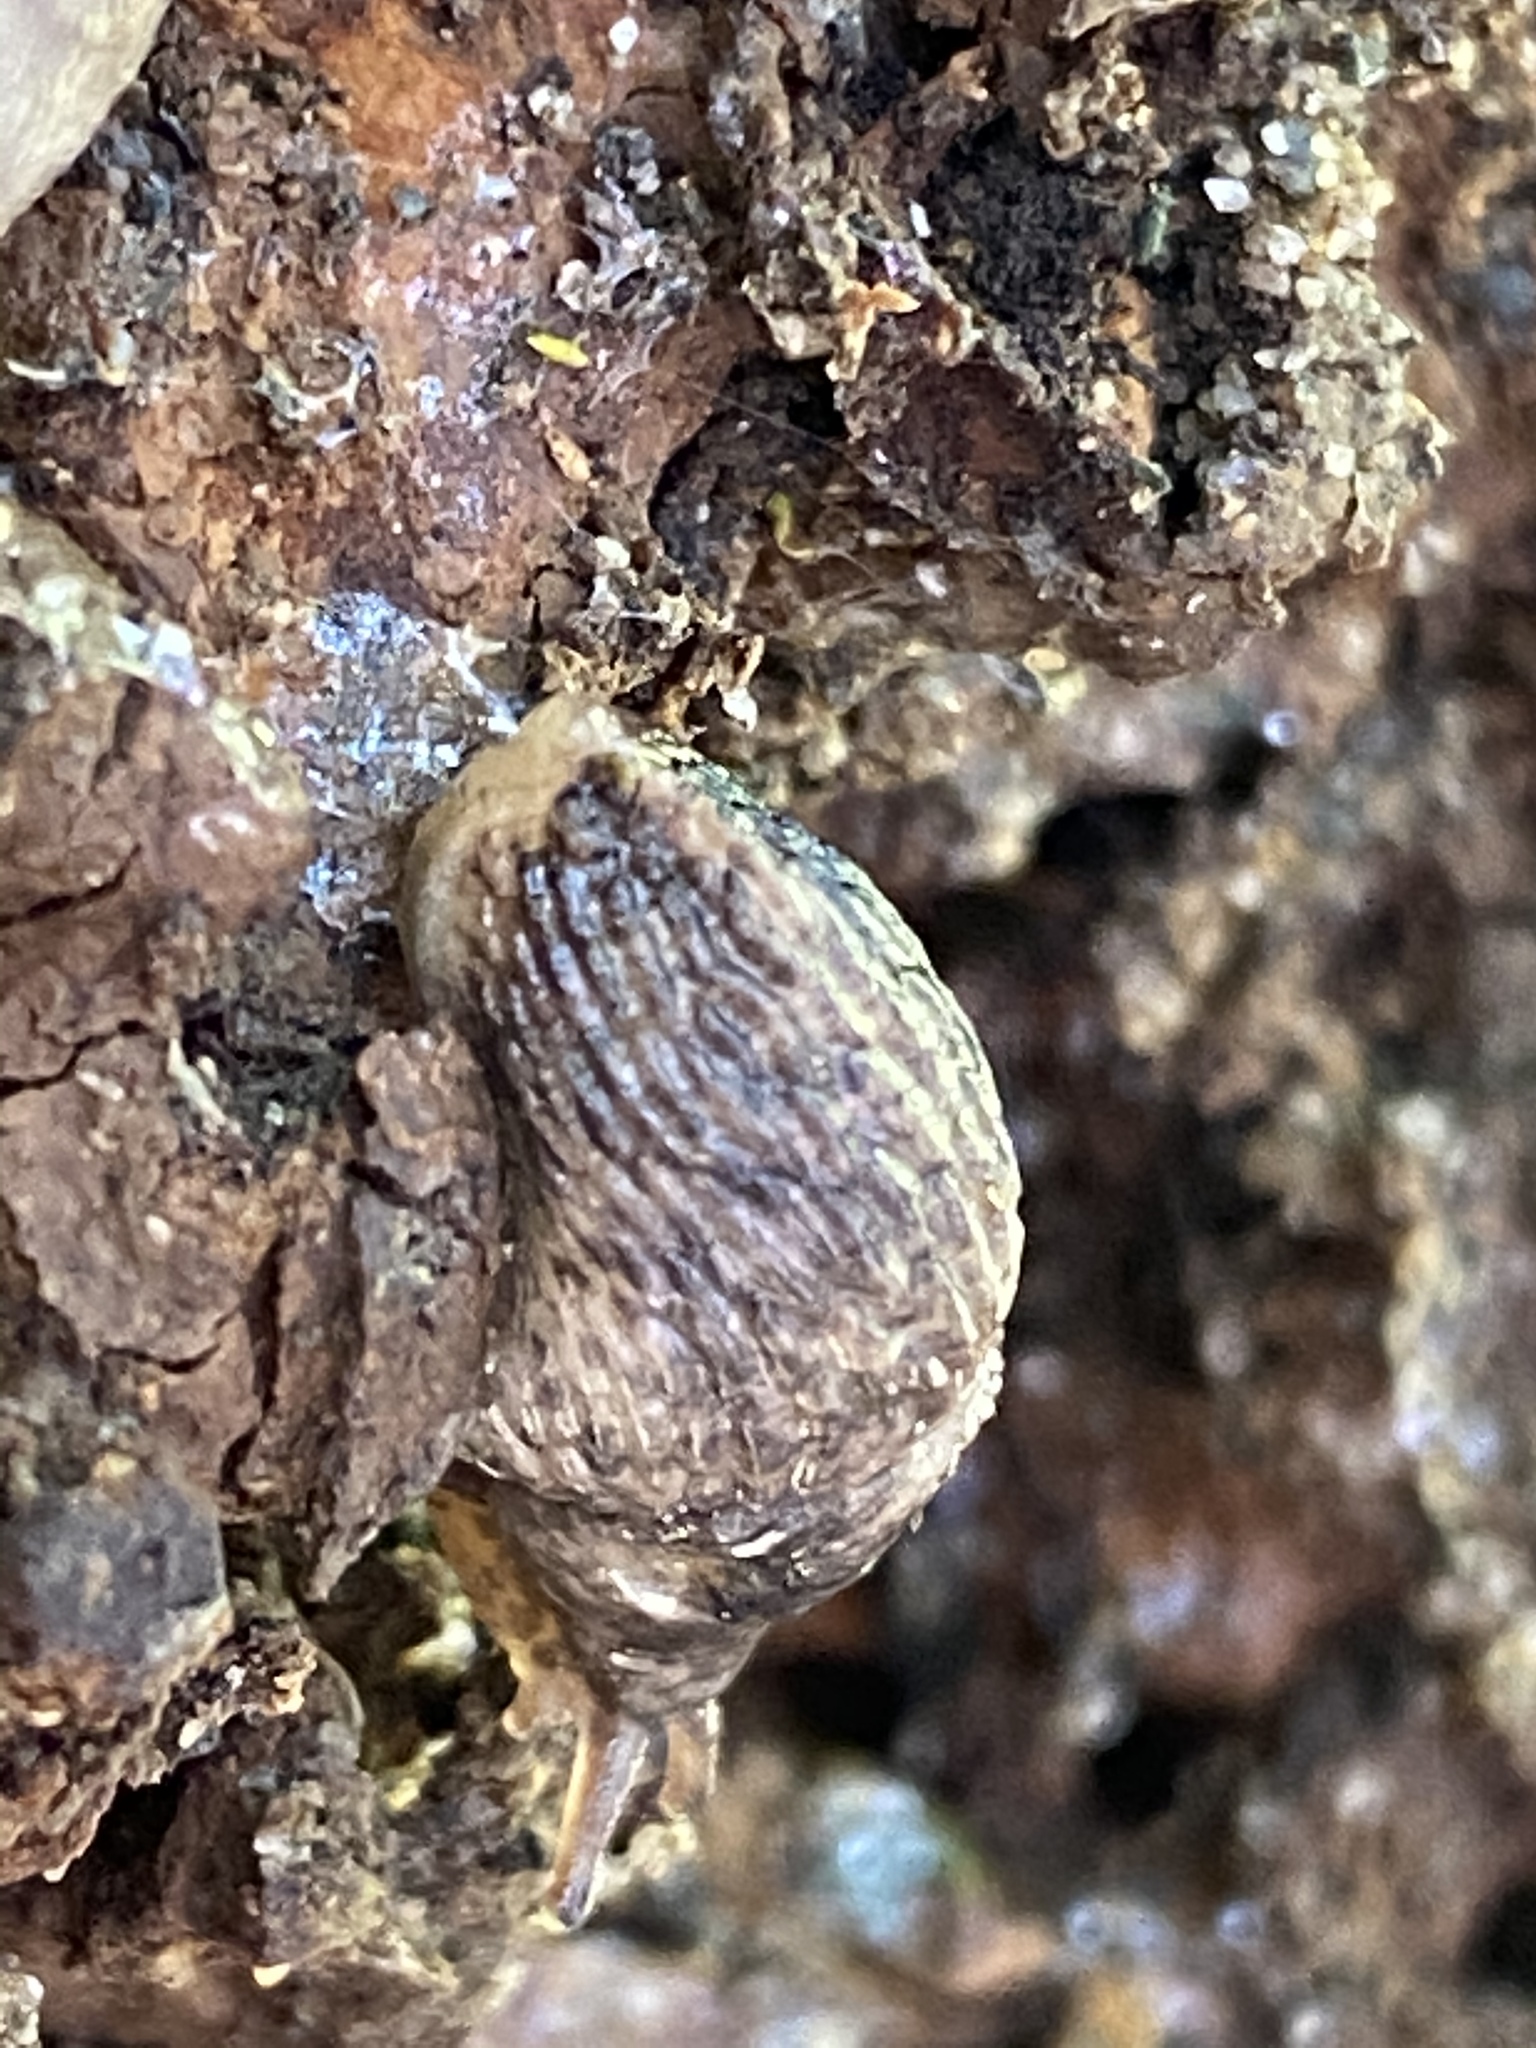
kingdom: Animalia
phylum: Mollusca
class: Gastropoda
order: Stylommatophora
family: Agriolimacidae
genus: Deroceras
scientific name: Deroceras reticulatum
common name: Gray field slug
